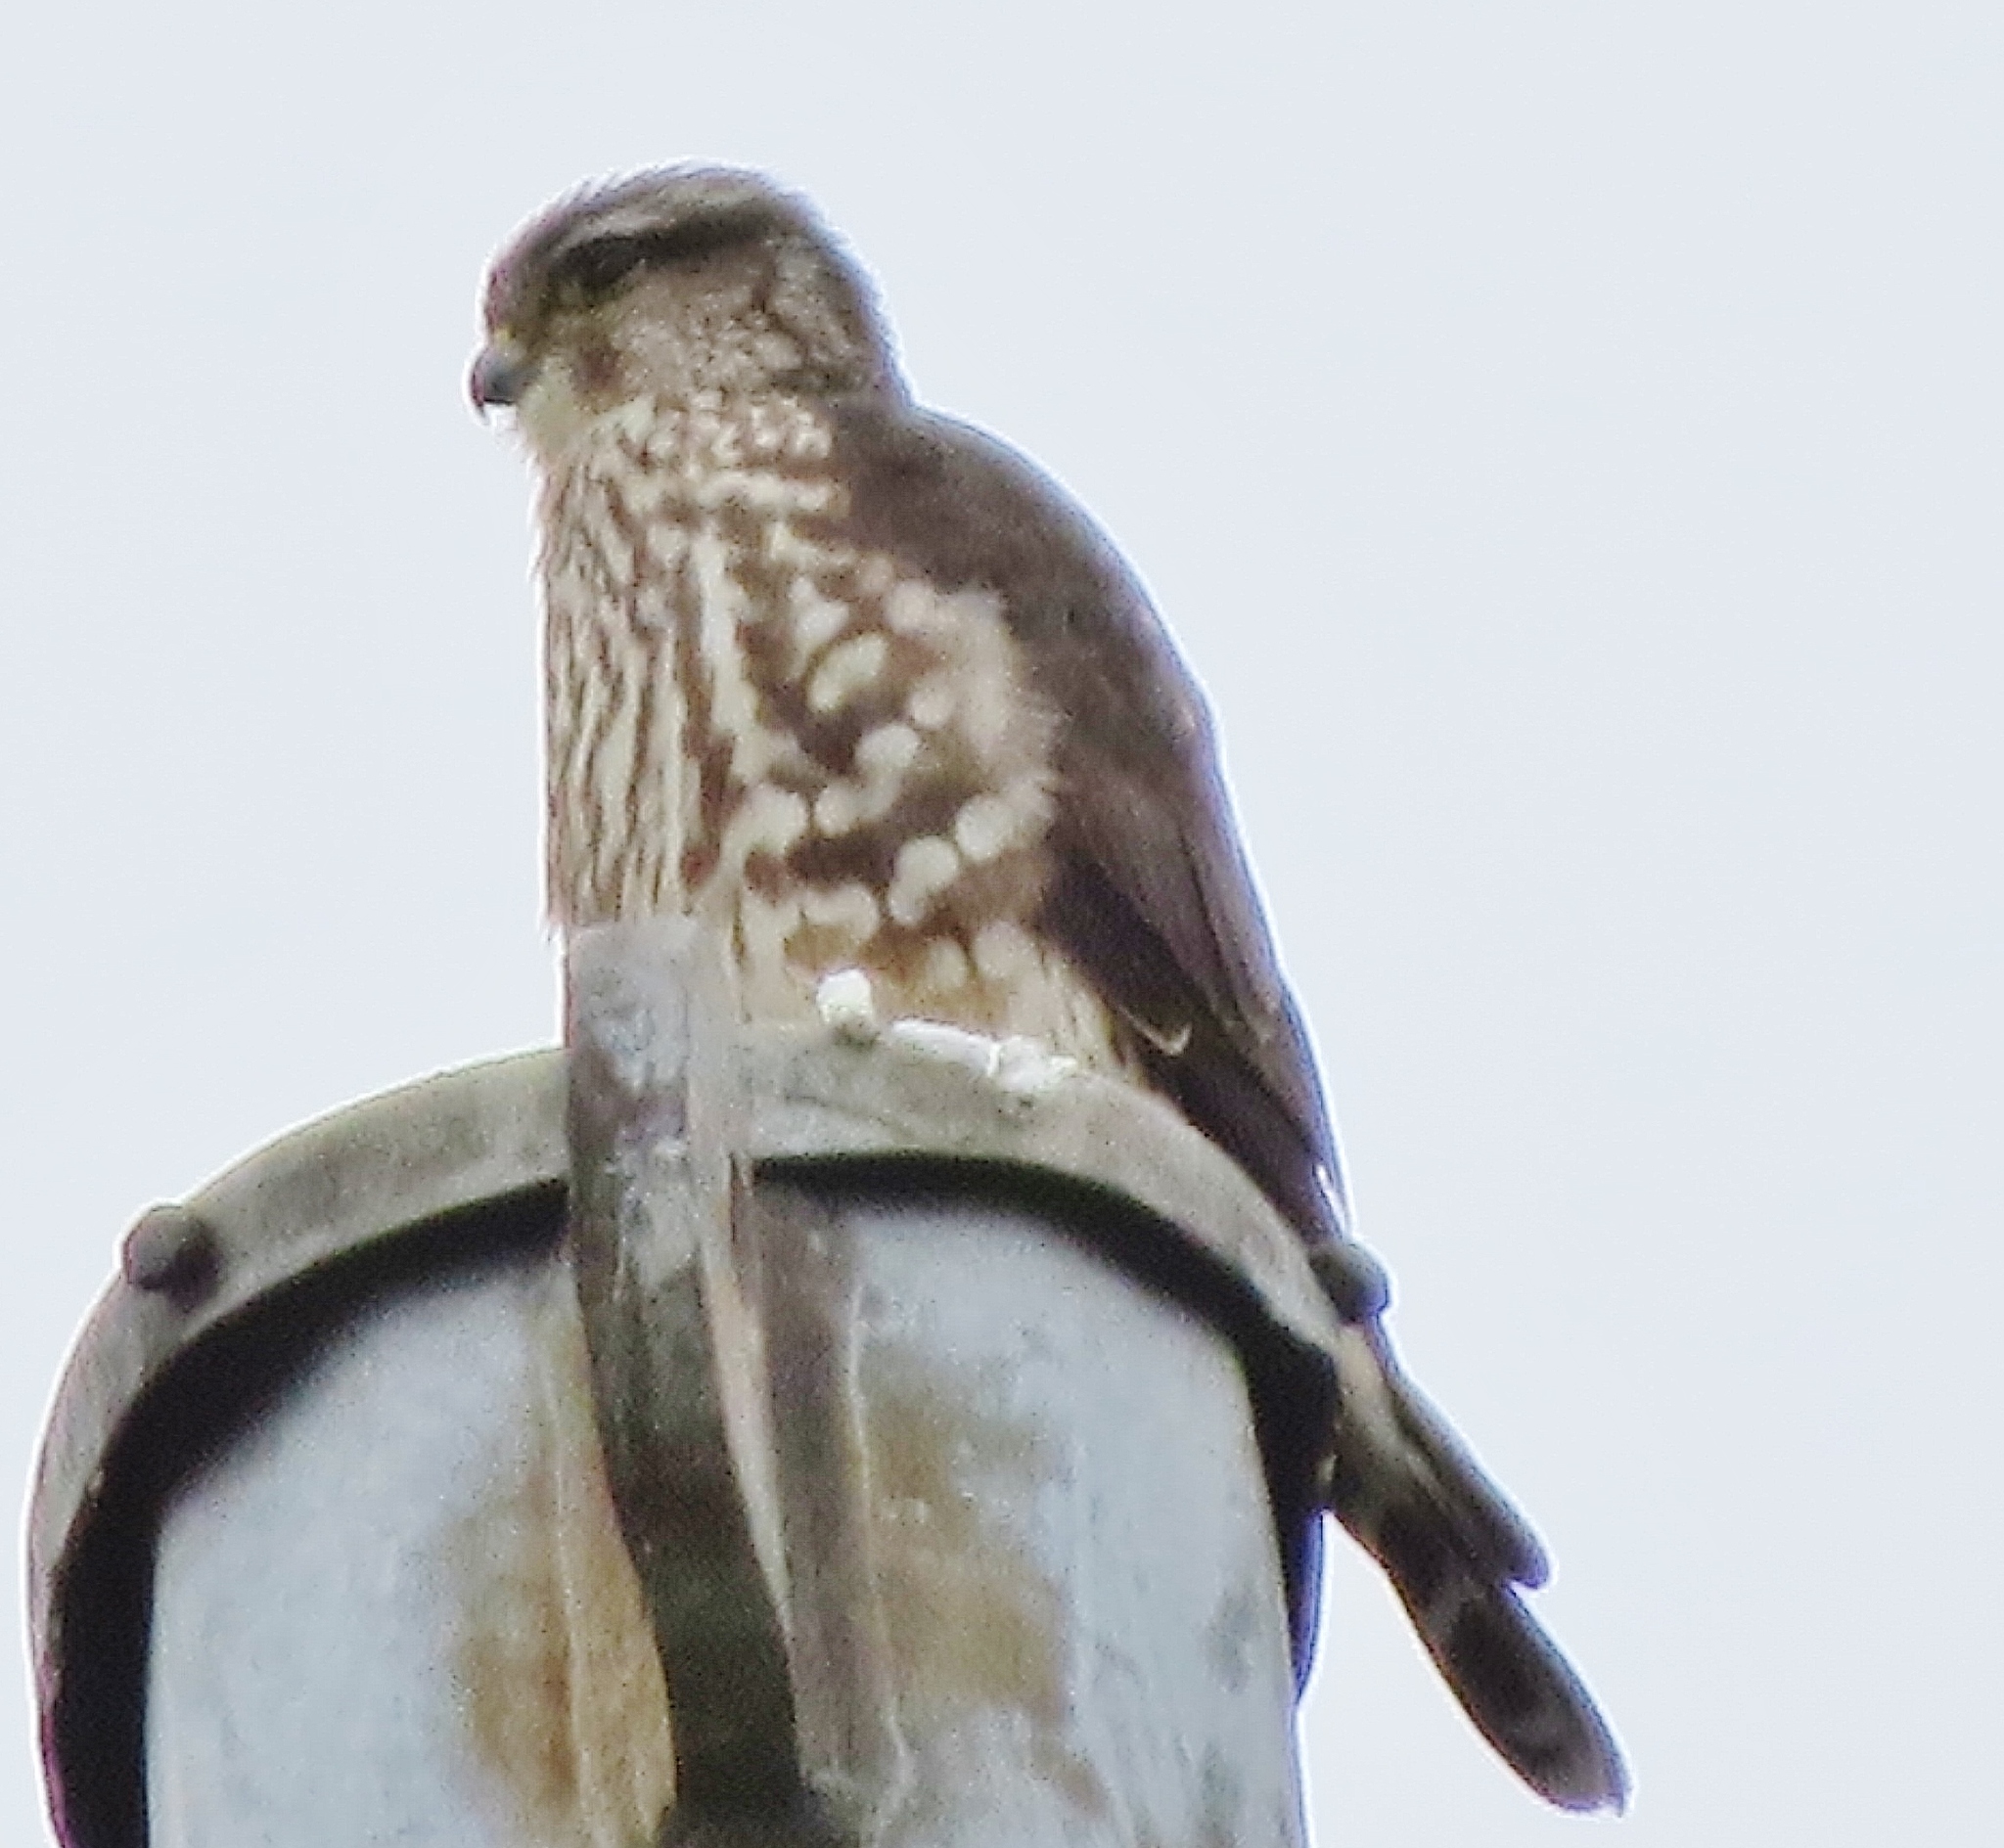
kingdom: Animalia
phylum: Chordata
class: Aves
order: Falconiformes
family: Falconidae
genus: Falco
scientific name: Falco columbarius
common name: Merlin
